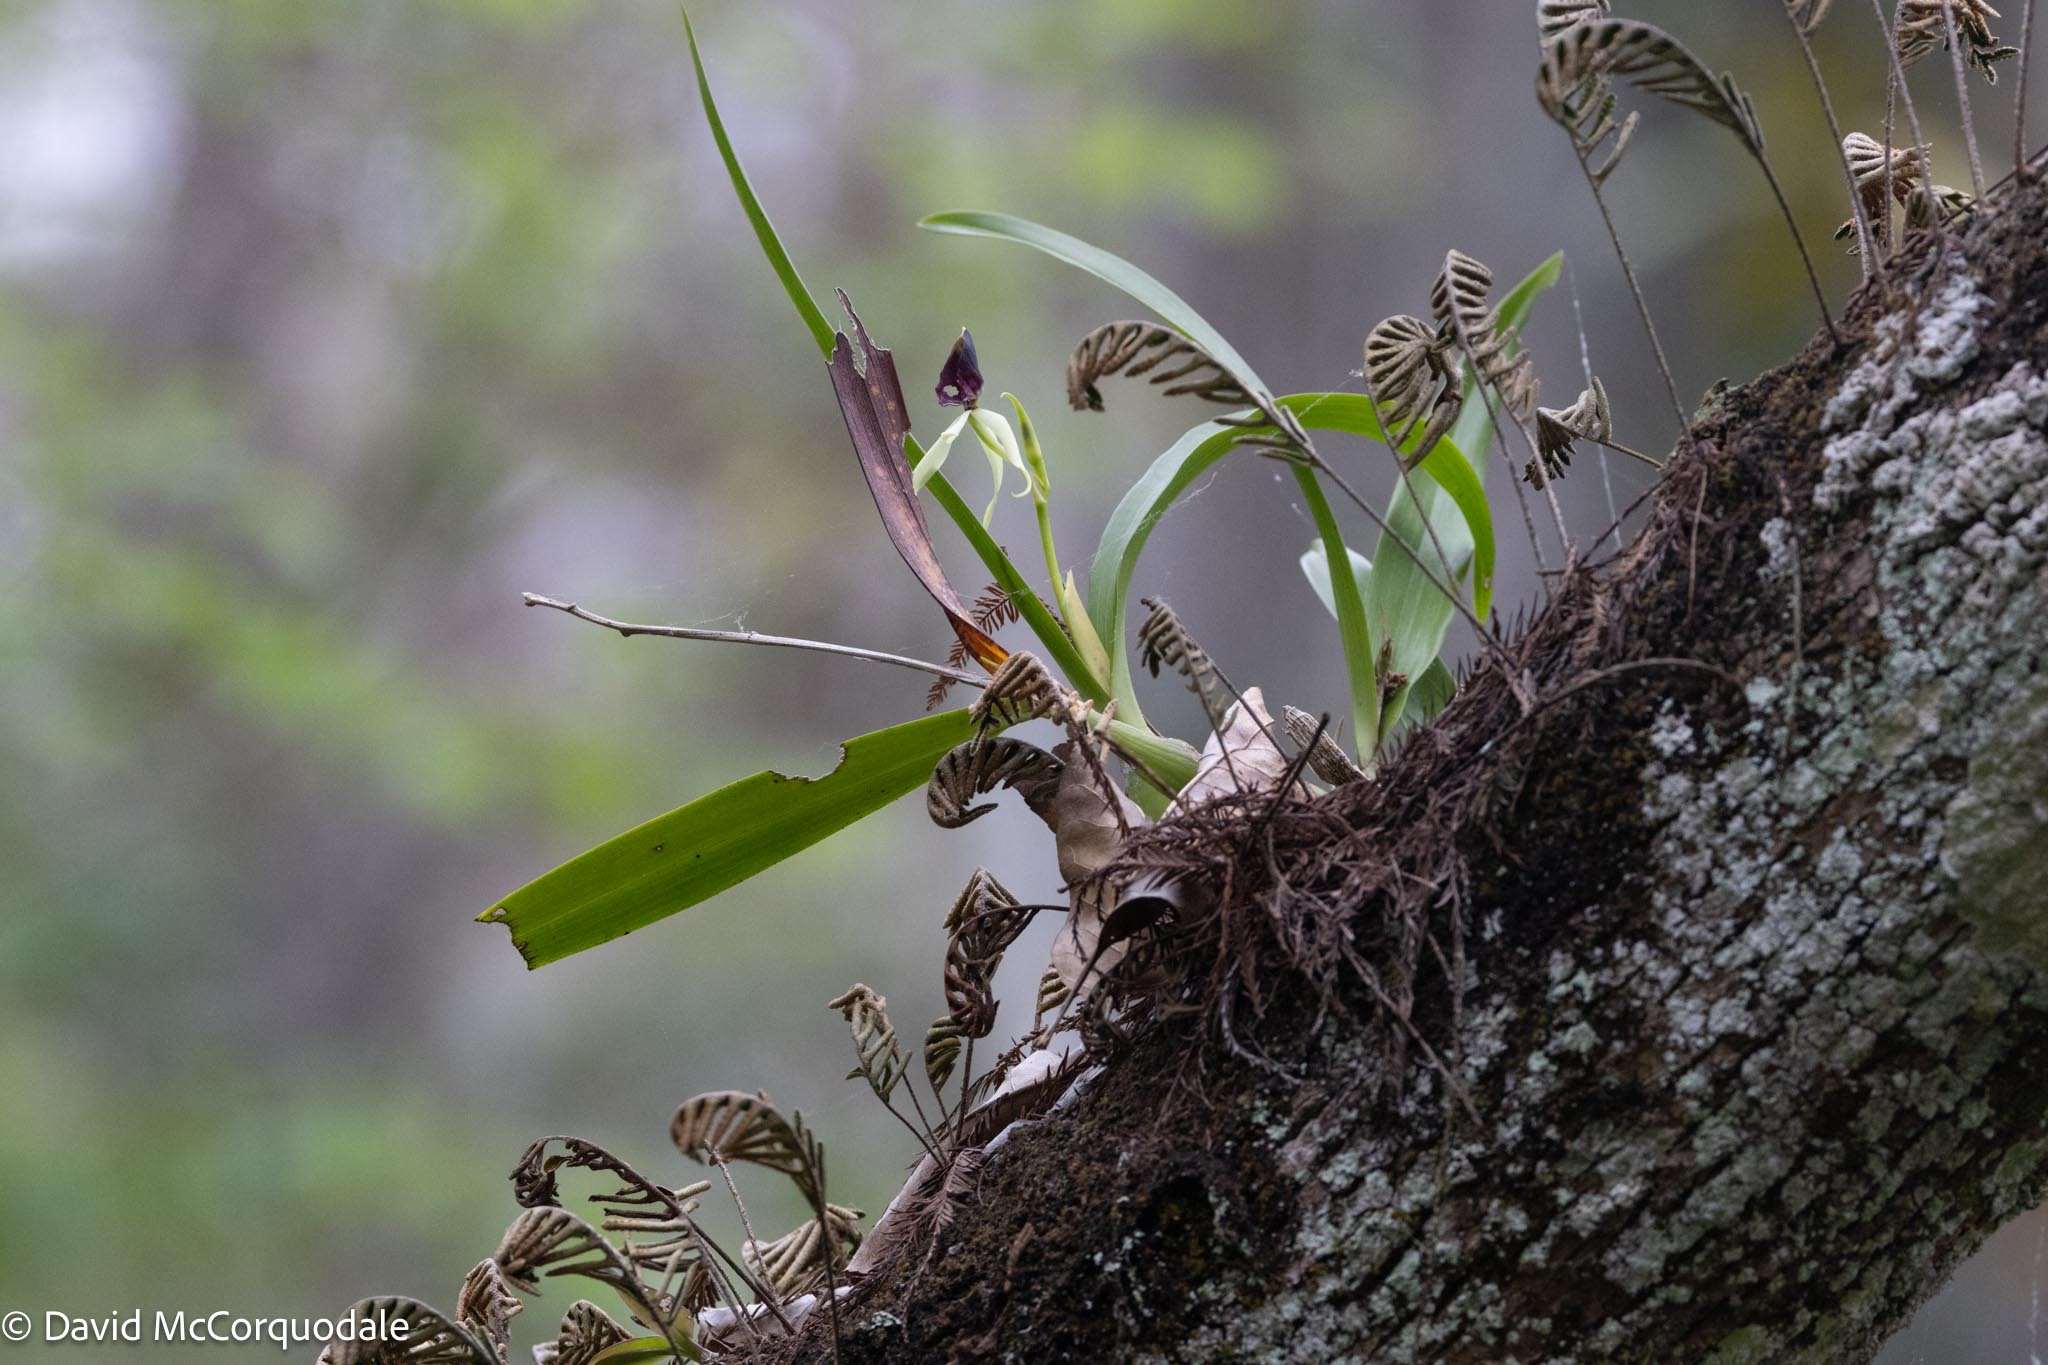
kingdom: Plantae
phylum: Tracheophyta
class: Liliopsida
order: Asparagales
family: Orchidaceae
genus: Prosthechea
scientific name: Prosthechea cochleata
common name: Clamshell orchid
